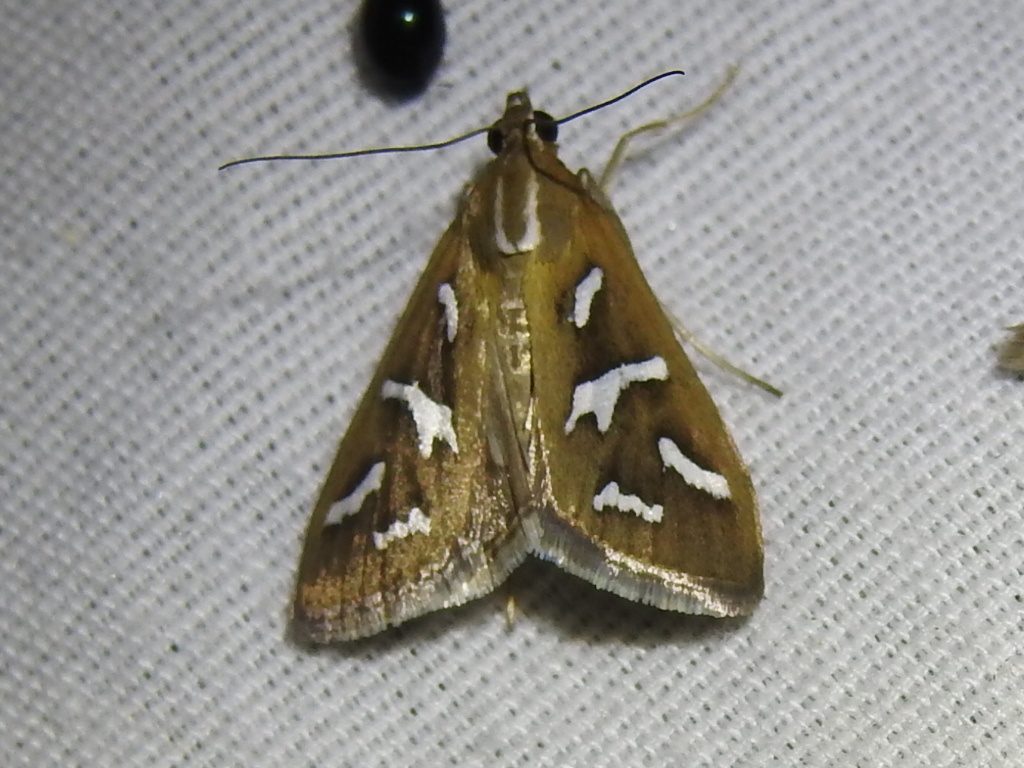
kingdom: Animalia
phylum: Arthropoda
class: Insecta
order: Lepidoptera
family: Crambidae
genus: Diastictis
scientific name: Diastictis fracturalis
